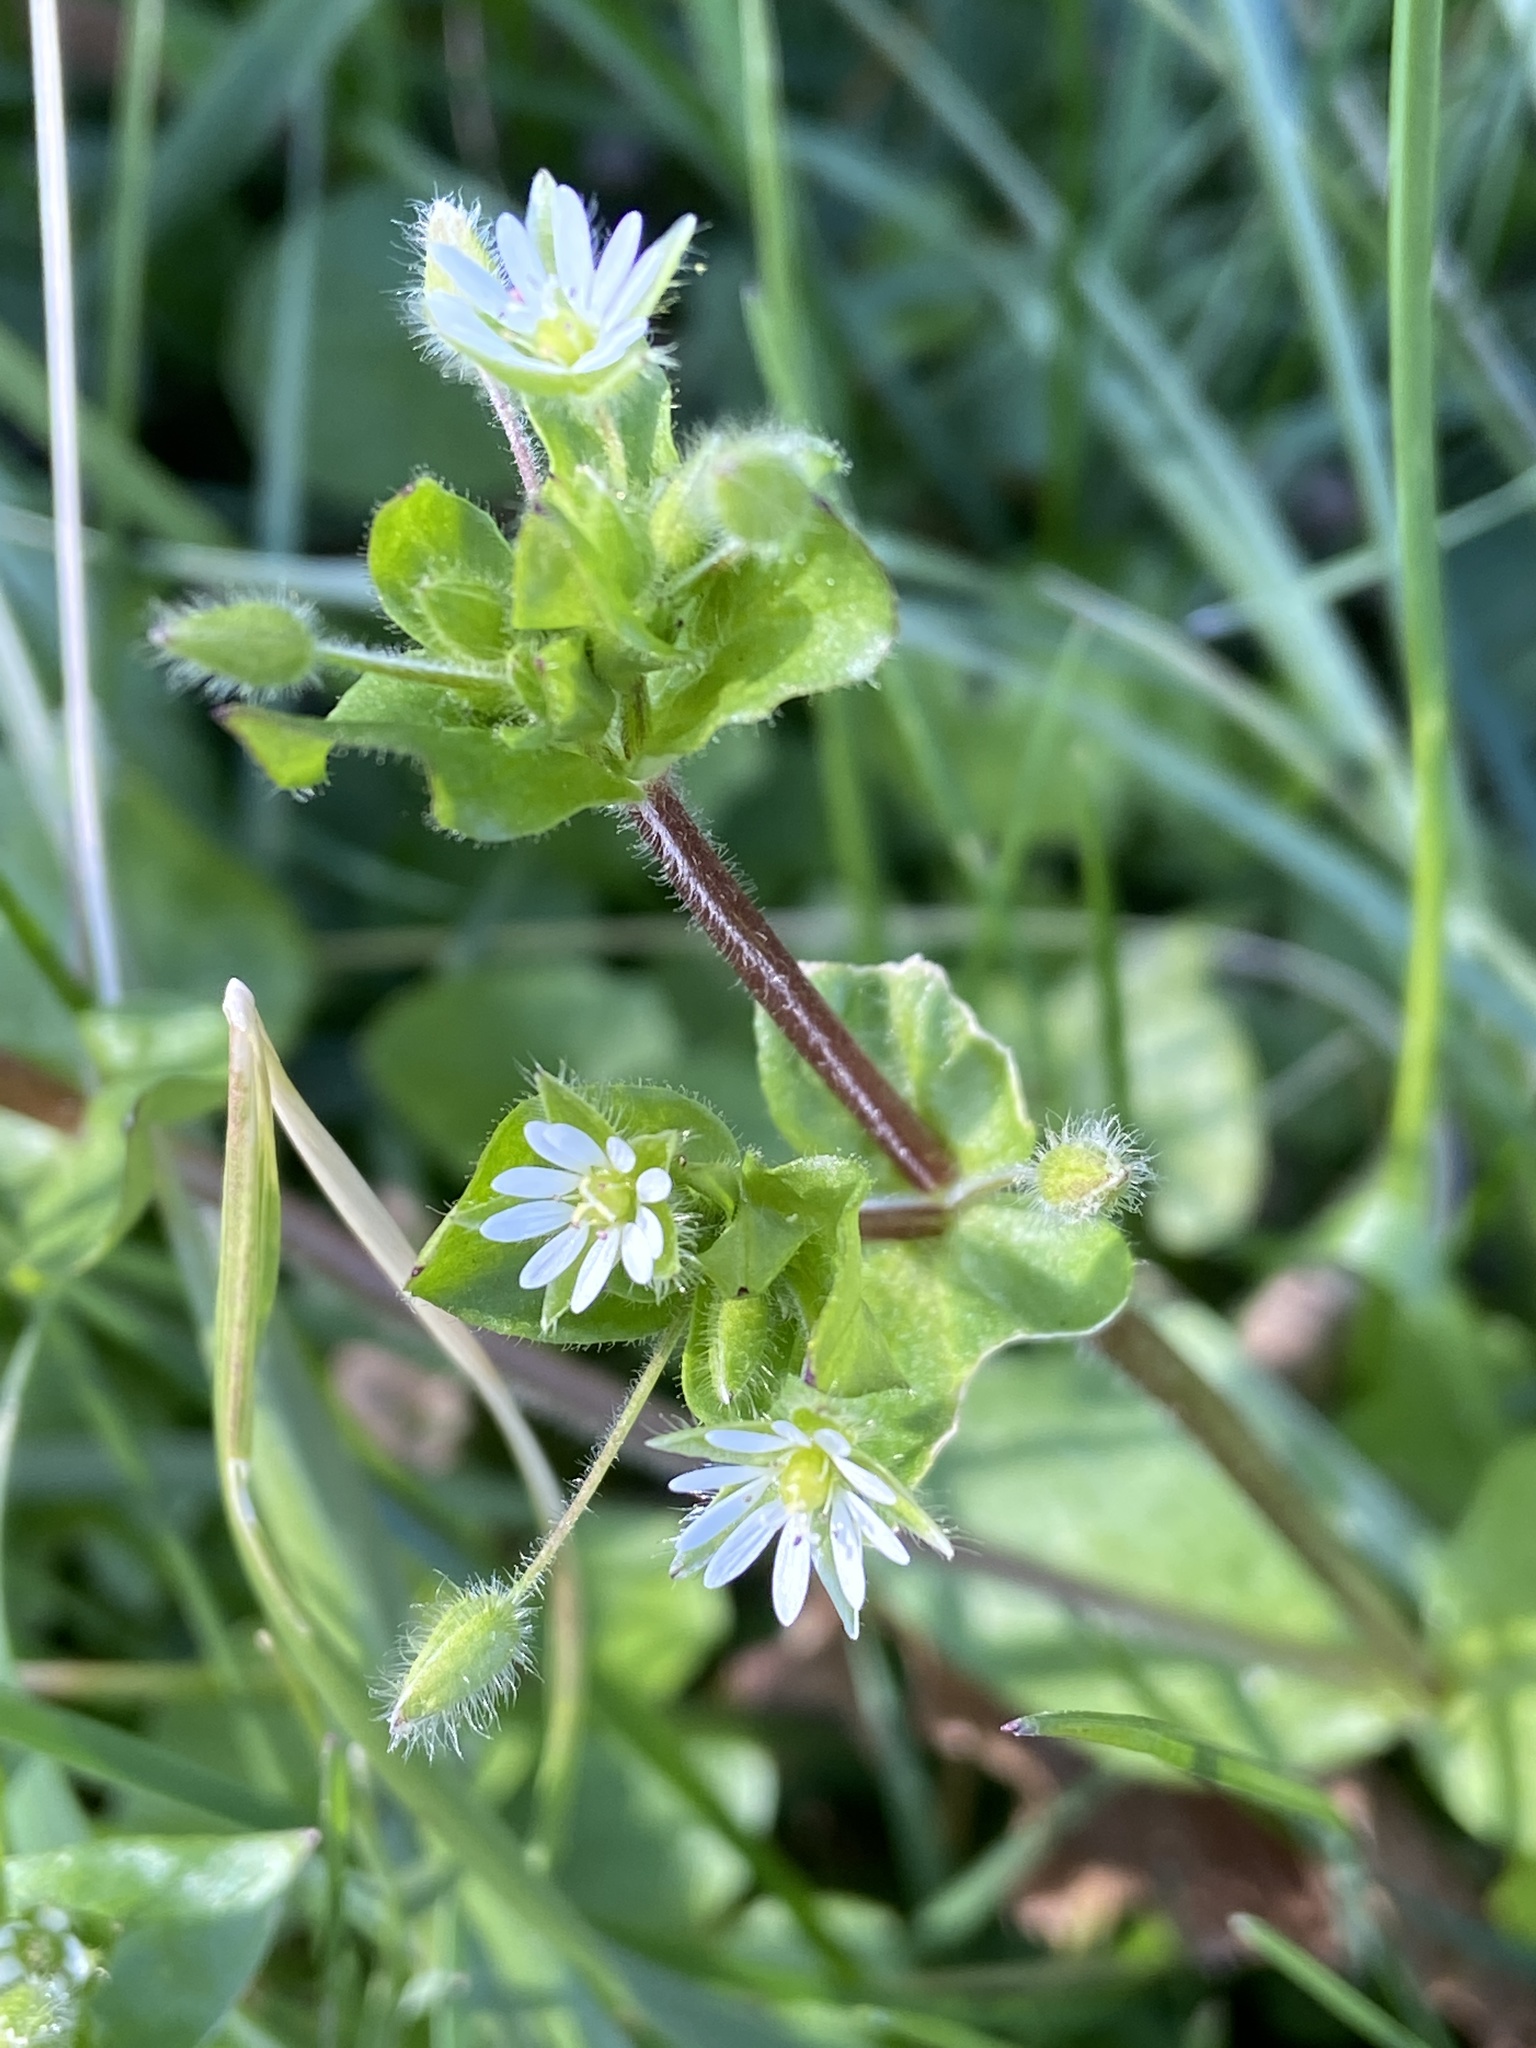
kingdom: Plantae
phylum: Tracheophyta
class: Magnoliopsida
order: Caryophyllales
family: Caryophyllaceae
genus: Stellaria
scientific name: Stellaria media
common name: Common chickweed
